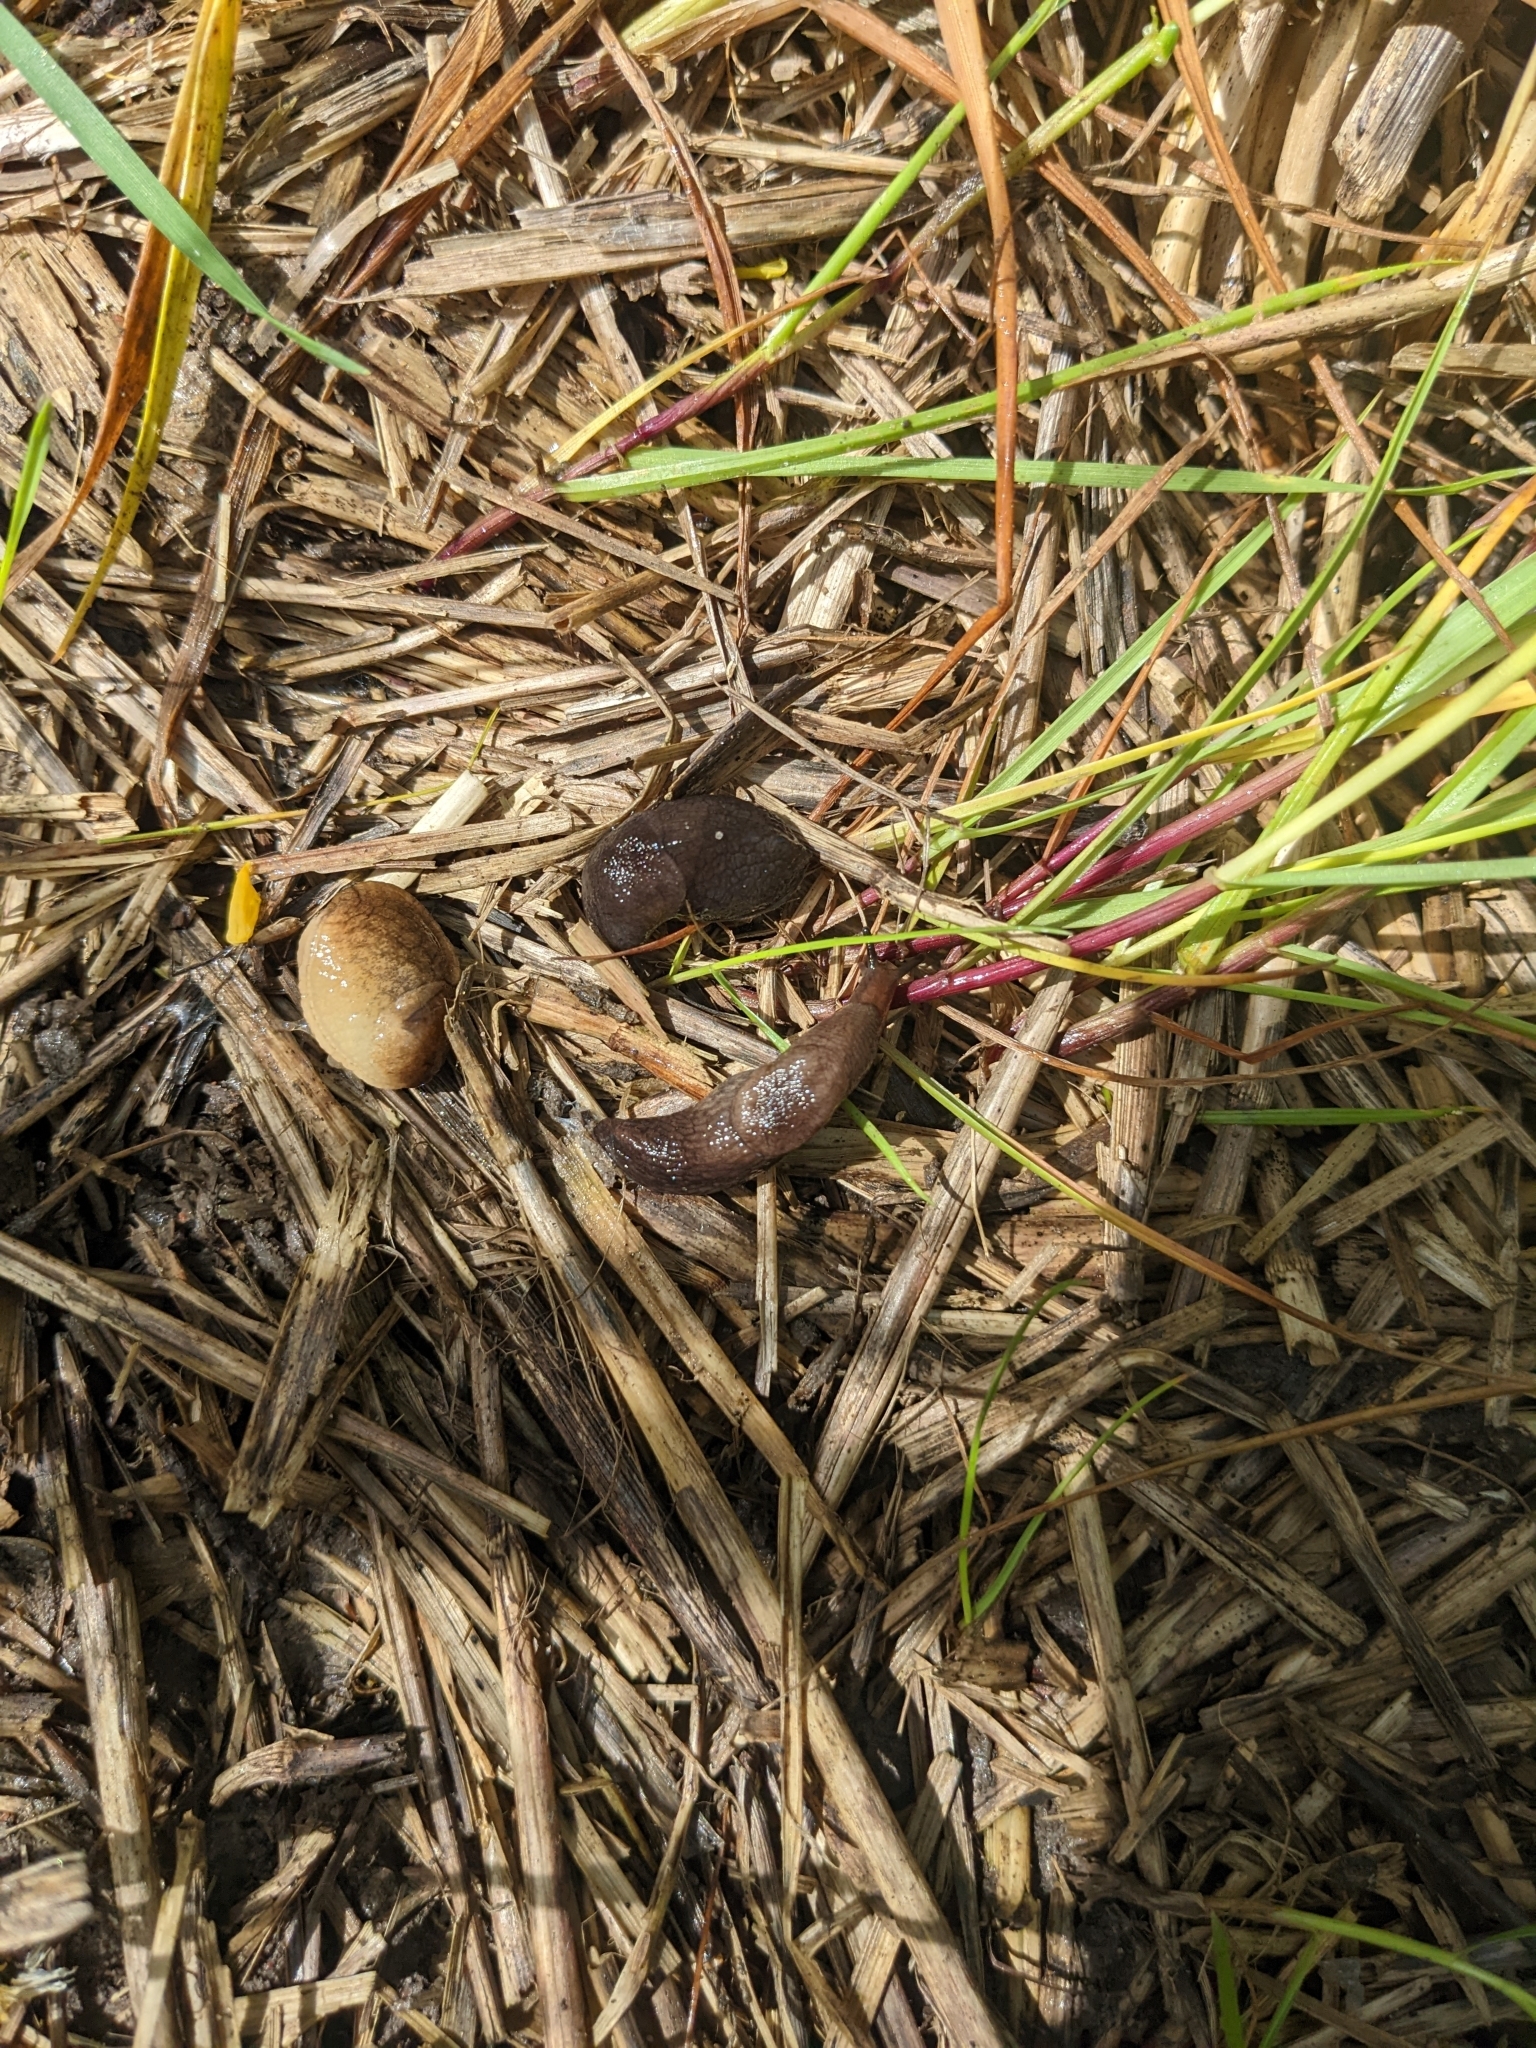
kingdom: Animalia
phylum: Mollusca
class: Gastropoda
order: Stylommatophora
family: Milacidae
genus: Milax
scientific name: Milax gagates
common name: Greenhouse slug
